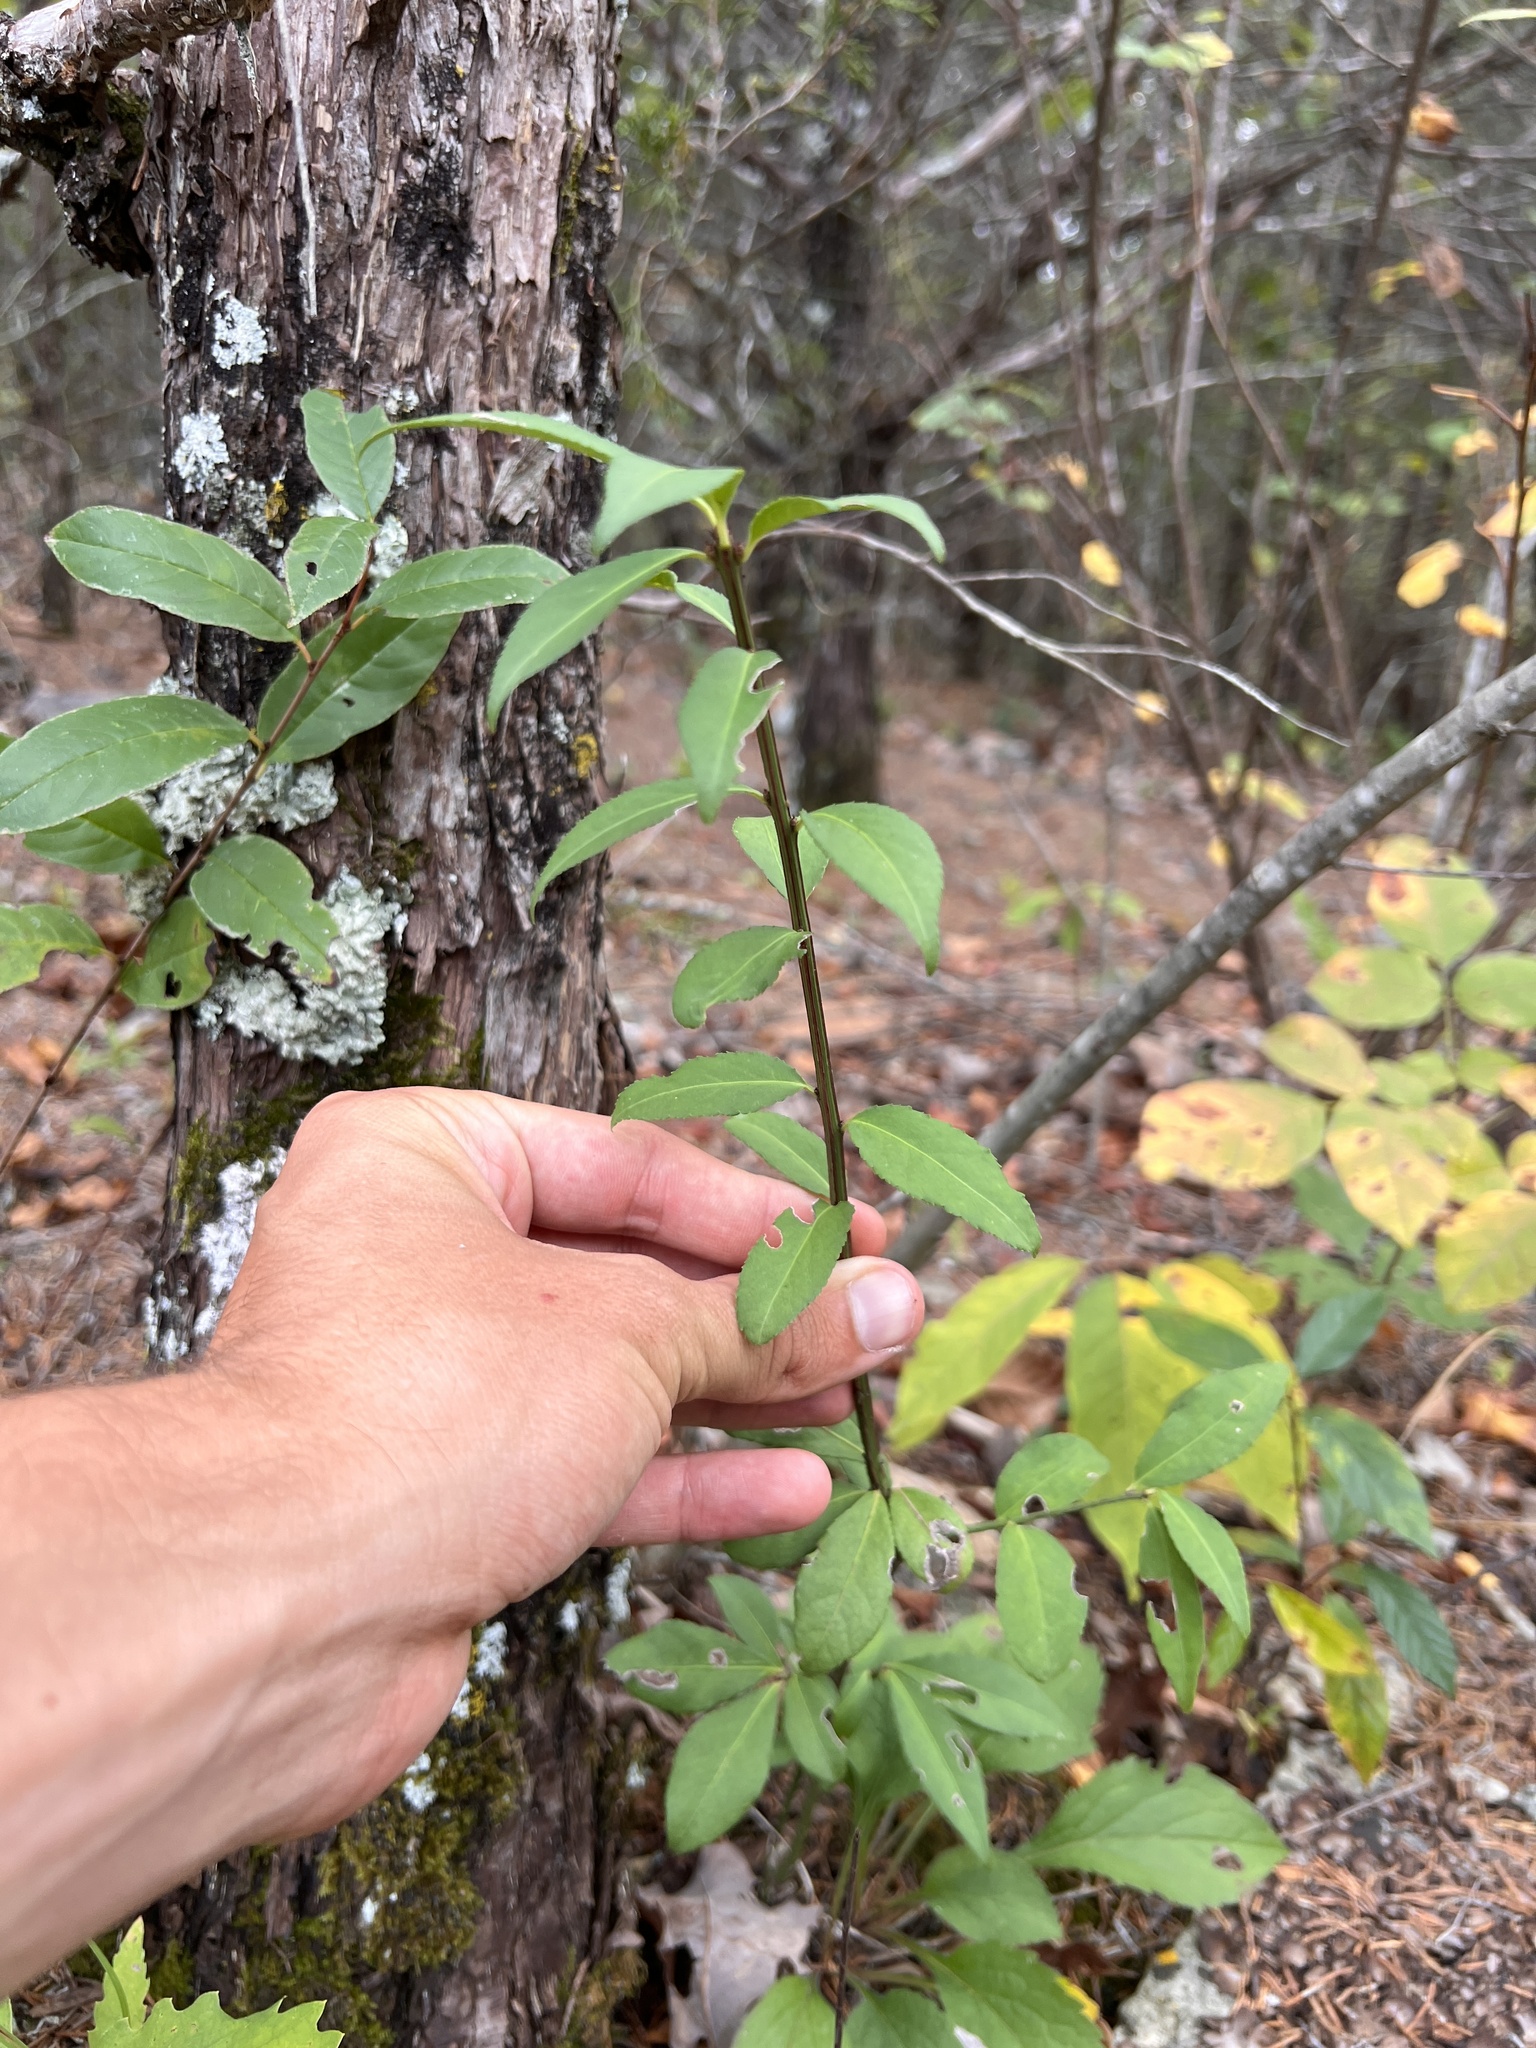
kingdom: Plantae
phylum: Tracheophyta
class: Magnoliopsida
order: Celastrales
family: Celastraceae
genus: Euonymus
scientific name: Euonymus alatus
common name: Winged euonymus
